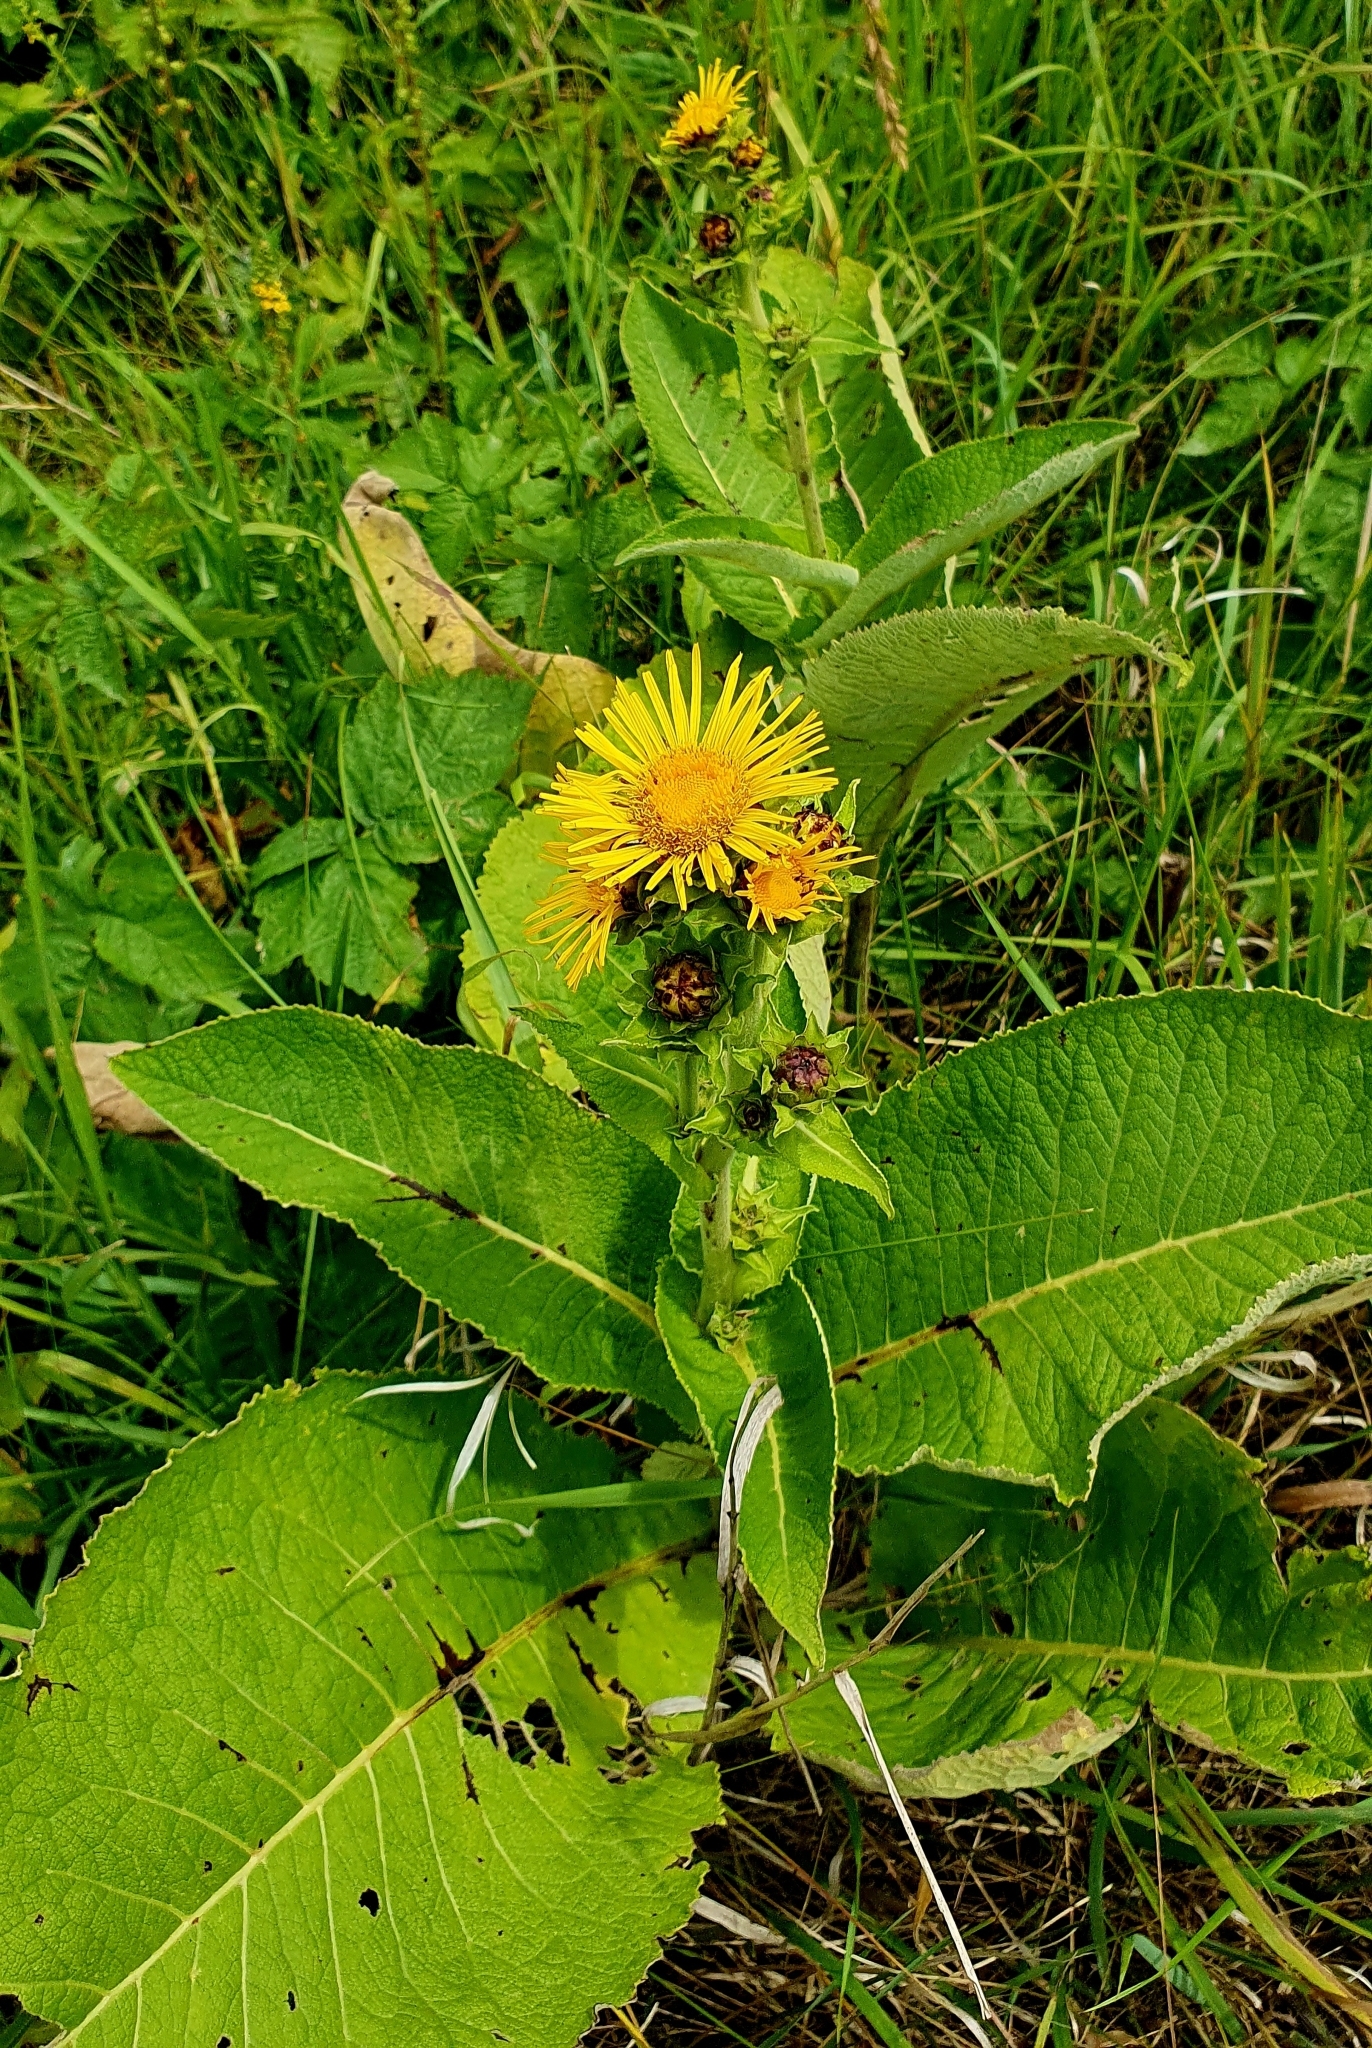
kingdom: Plantae
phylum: Tracheophyta
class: Magnoliopsida
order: Asterales
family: Asteraceae
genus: Inula
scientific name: Inula helenium
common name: Elecampane
